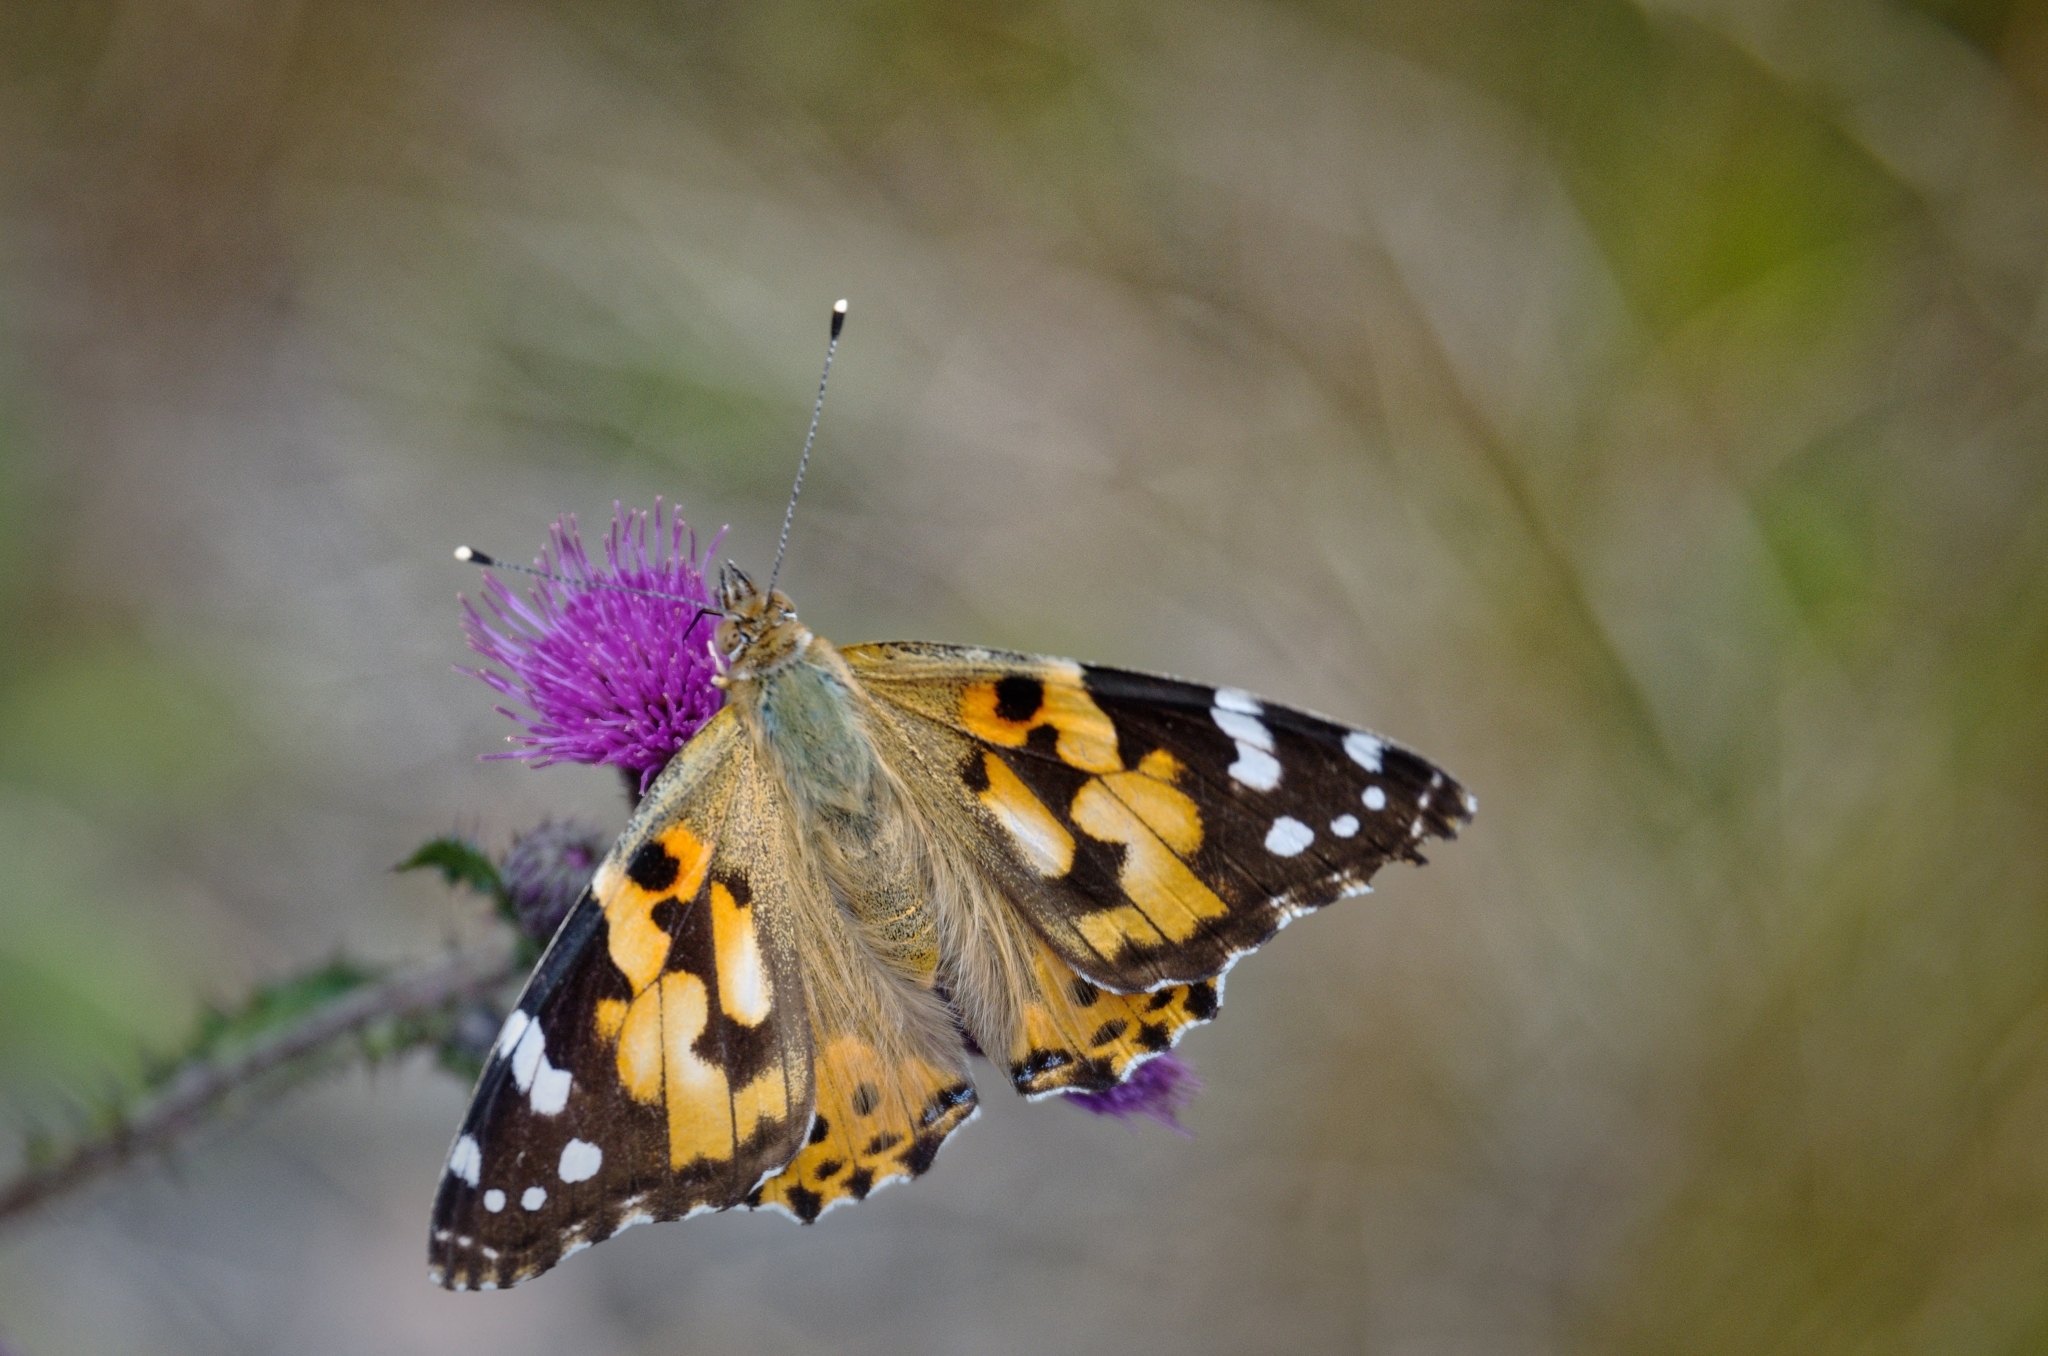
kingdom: Animalia
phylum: Arthropoda
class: Insecta
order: Lepidoptera
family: Nymphalidae
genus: Vanessa
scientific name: Vanessa cardui
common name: Painted lady
